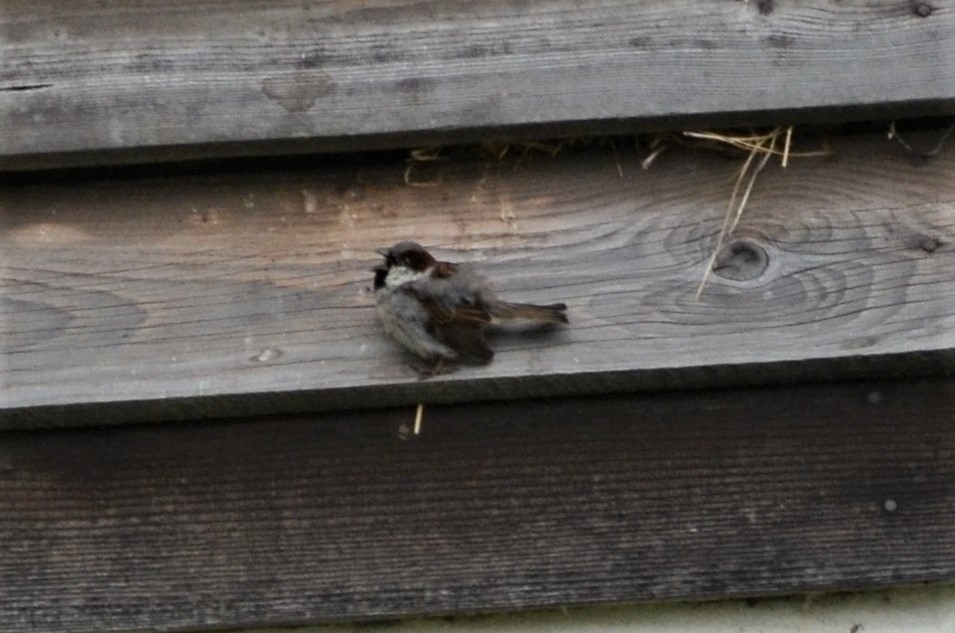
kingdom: Animalia
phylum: Chordata
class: Aves
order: Passeriformes
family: Passeridae
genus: Passer
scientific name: Passer domesticus
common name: House sparrow
